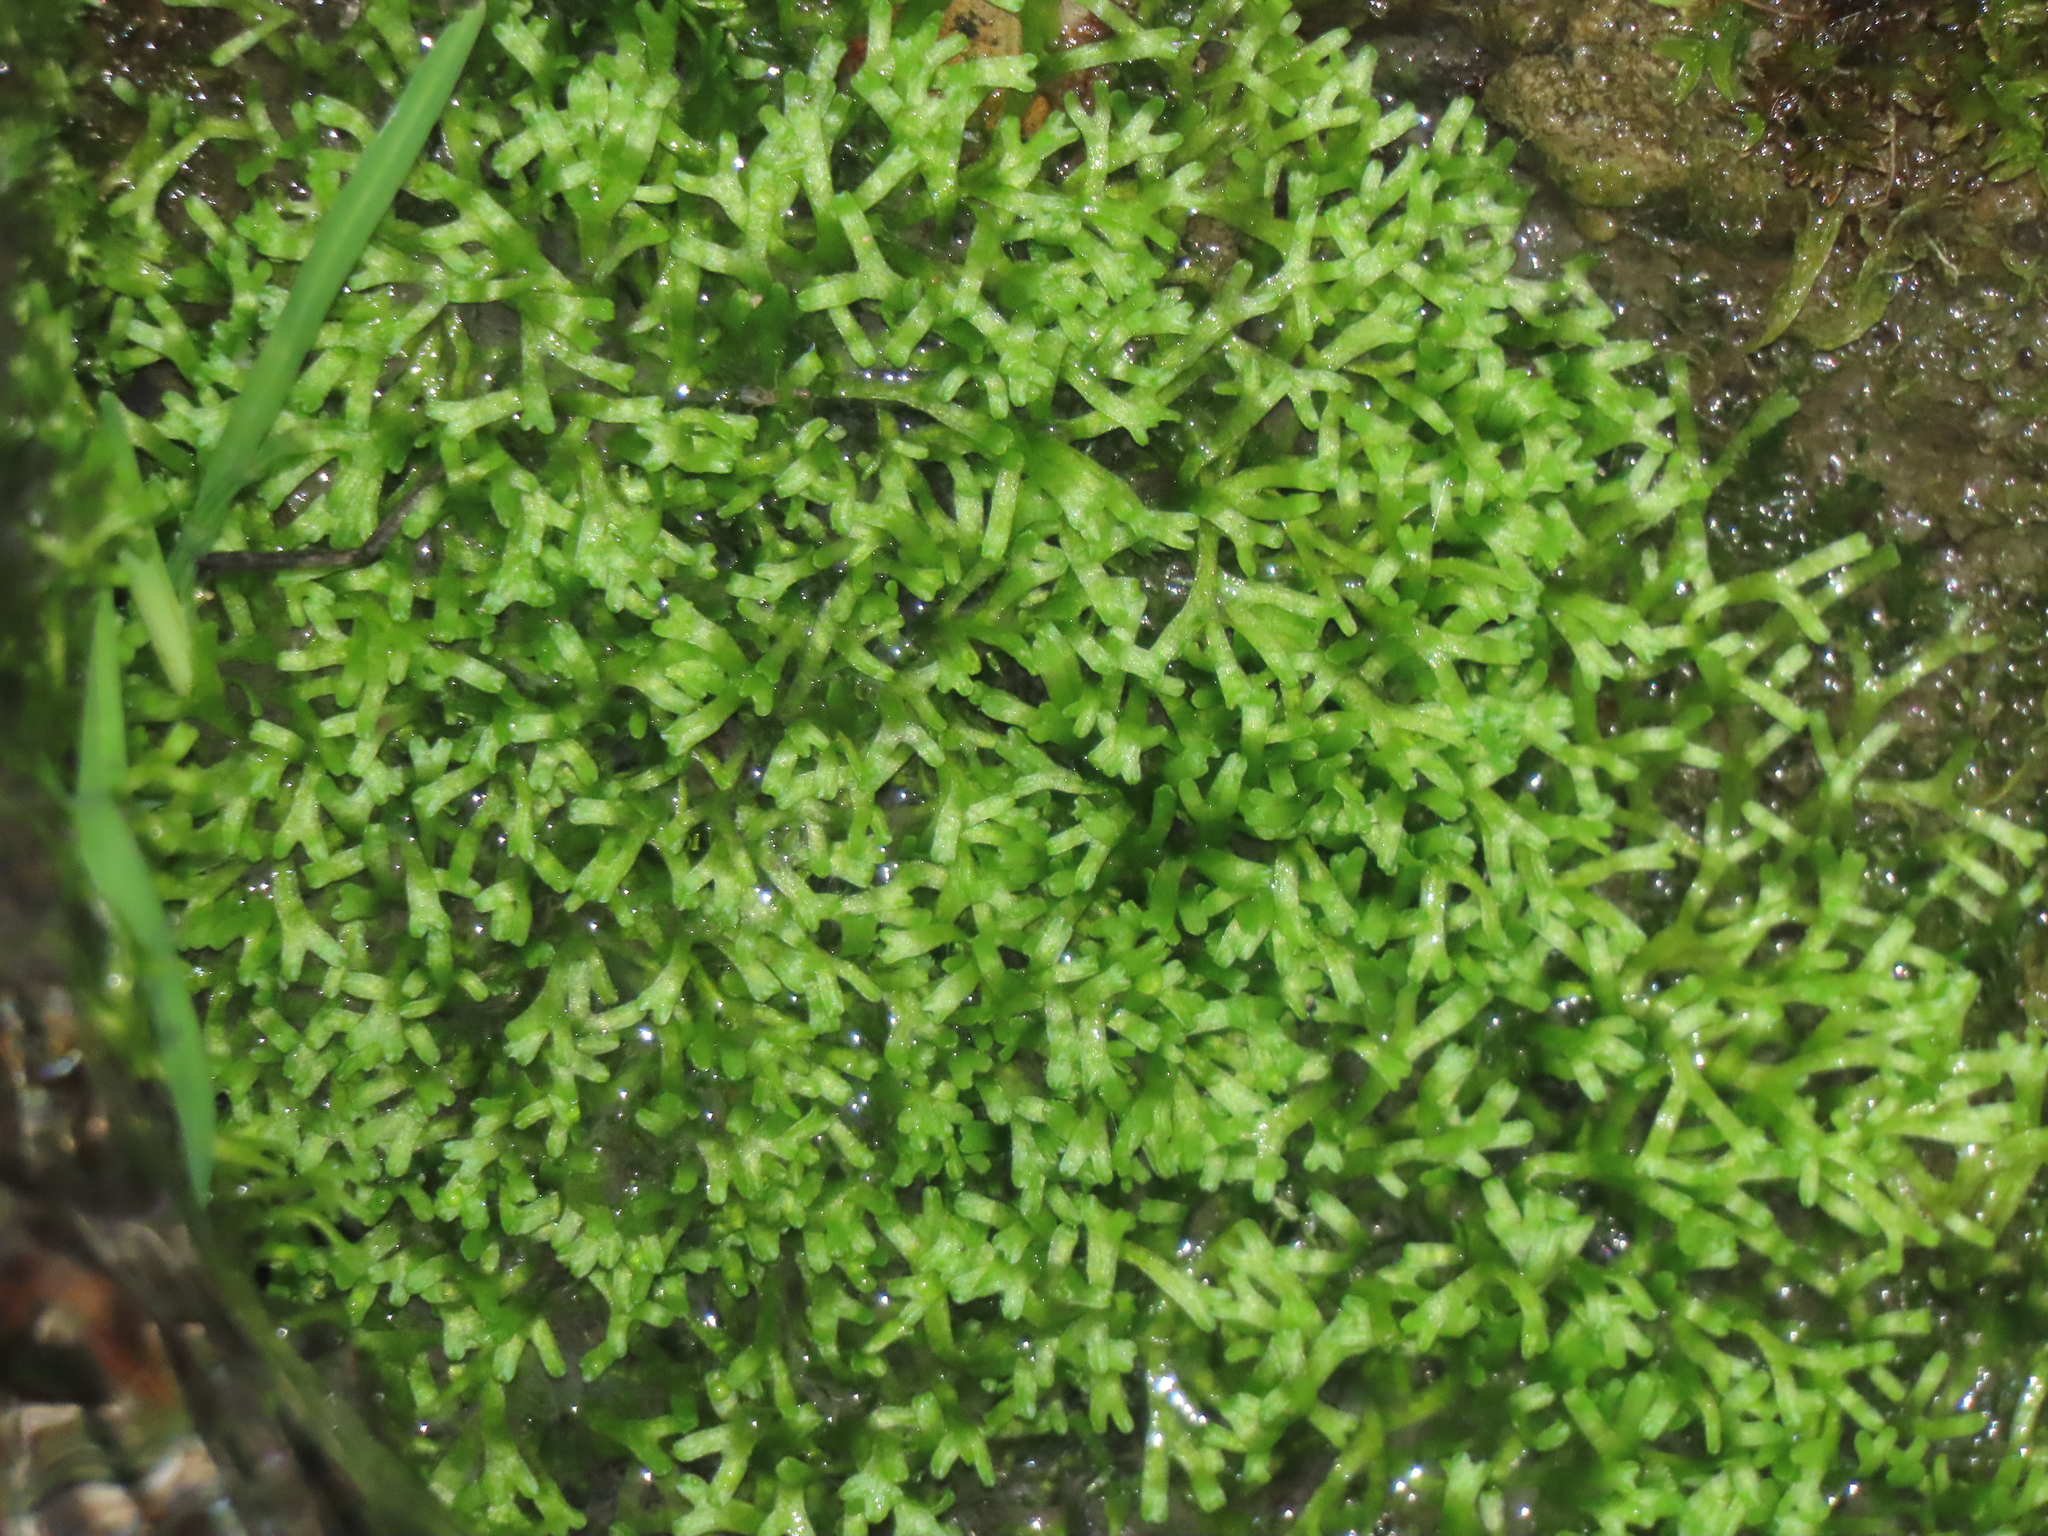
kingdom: Plantae
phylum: Marchantiophyta
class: Marchantiopsida
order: Marchantiales
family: Ricciaceae
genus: Riccia
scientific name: Riccia fluitans
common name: Floating crystalwort
